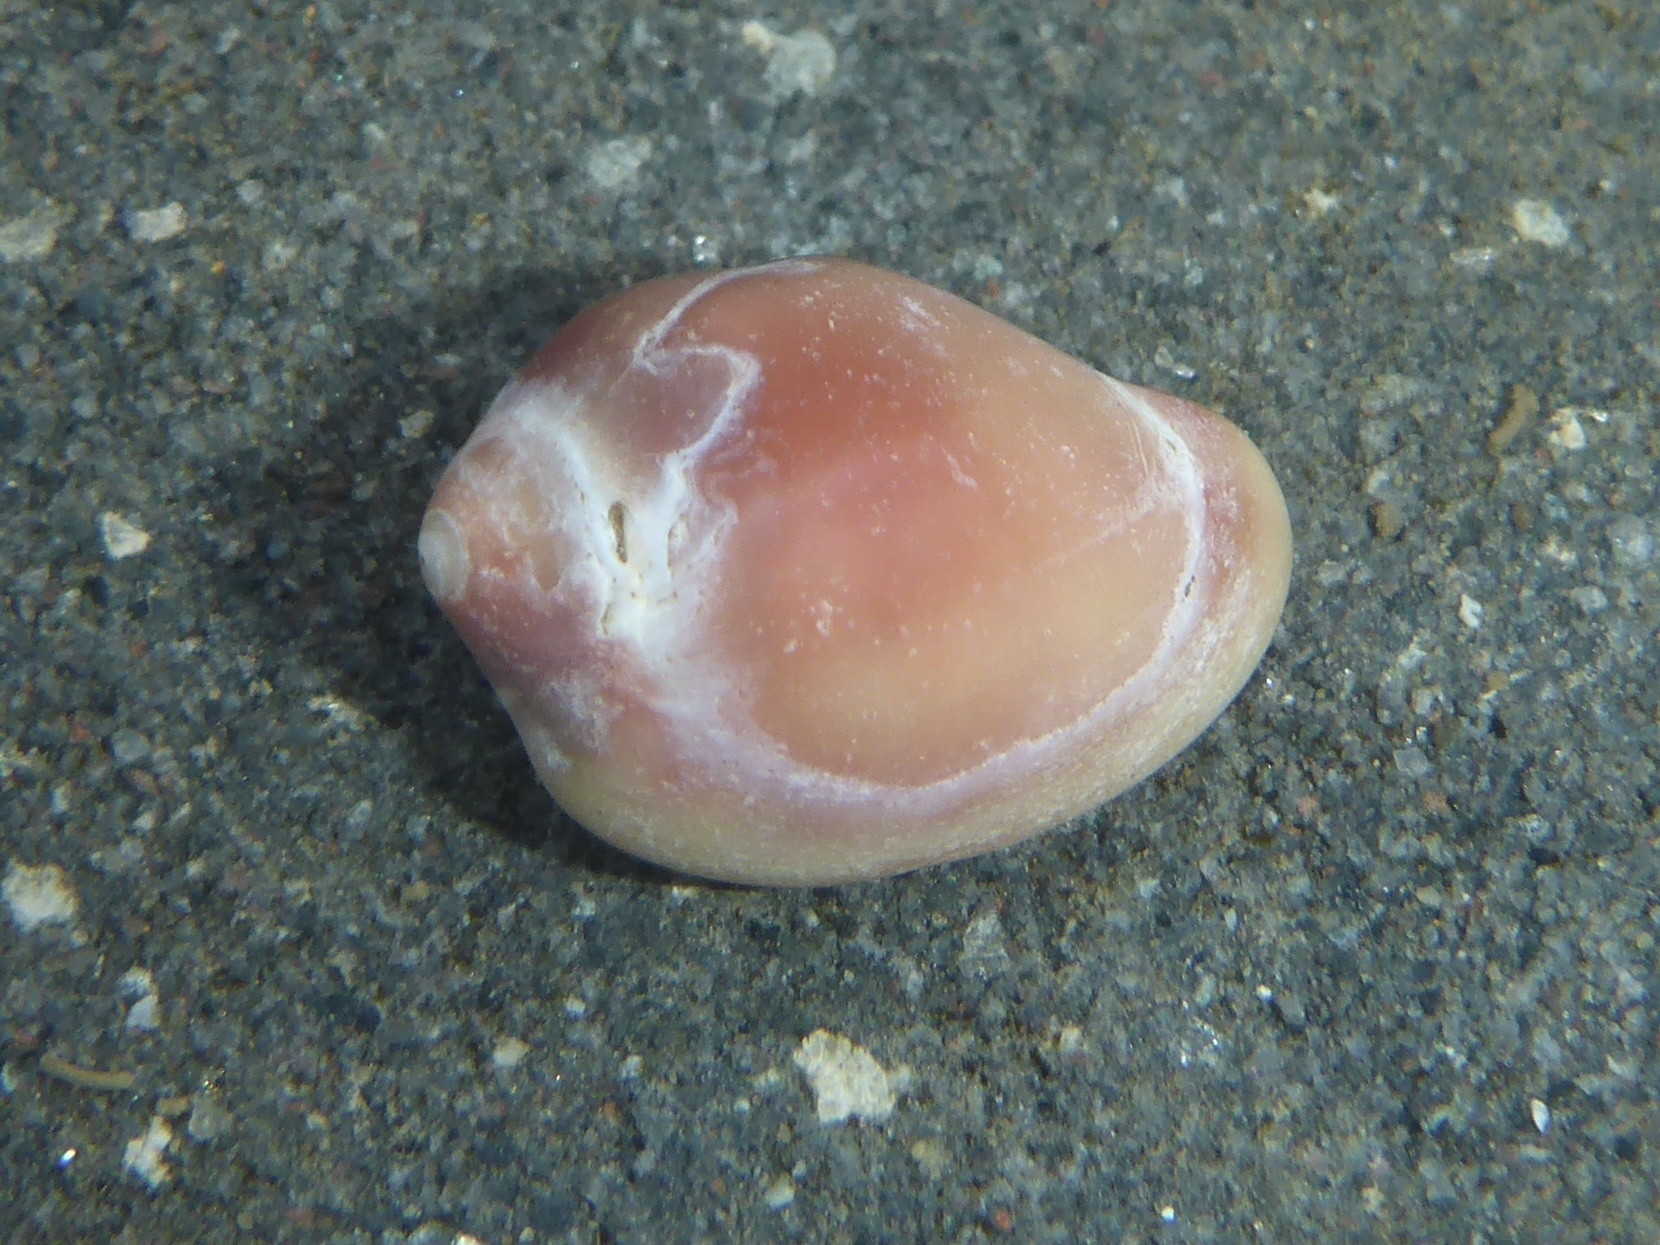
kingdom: Animalia
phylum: Mollusca
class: Gastropoda
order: Littorinimorpha
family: Eratoidae
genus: Hespererato
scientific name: Hespererato vitellina
